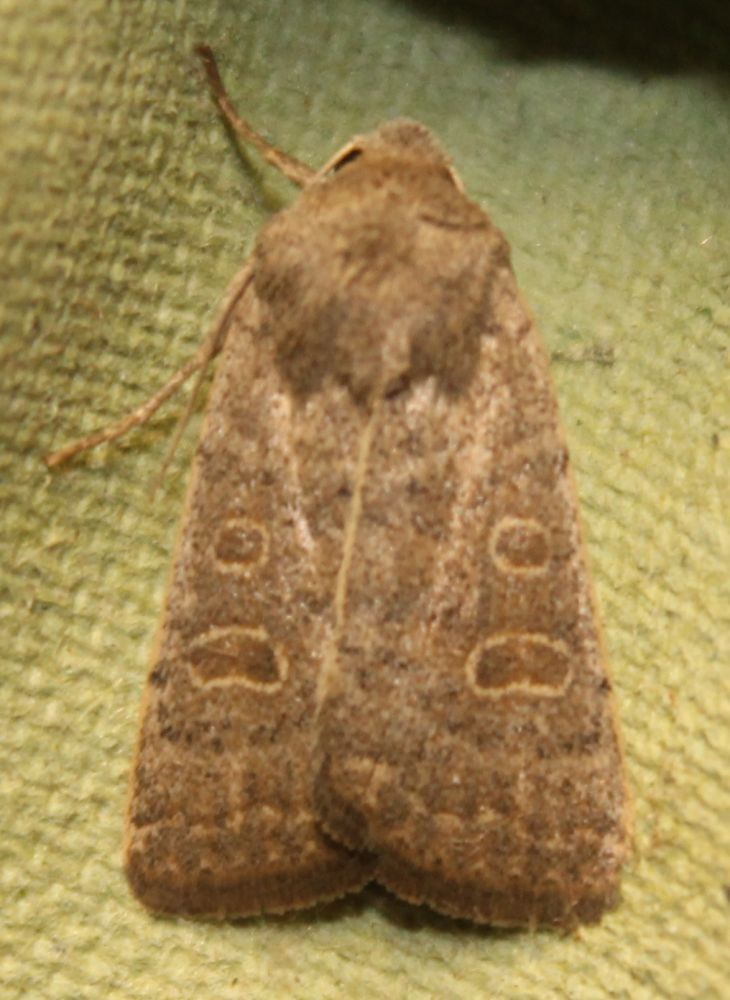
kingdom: Animalia
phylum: Arthropoda
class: Insecta
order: Lepidoptera
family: Noctuidae
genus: Hoplodrina
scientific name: Hoplodrina ambigua
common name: Vine's rustic
